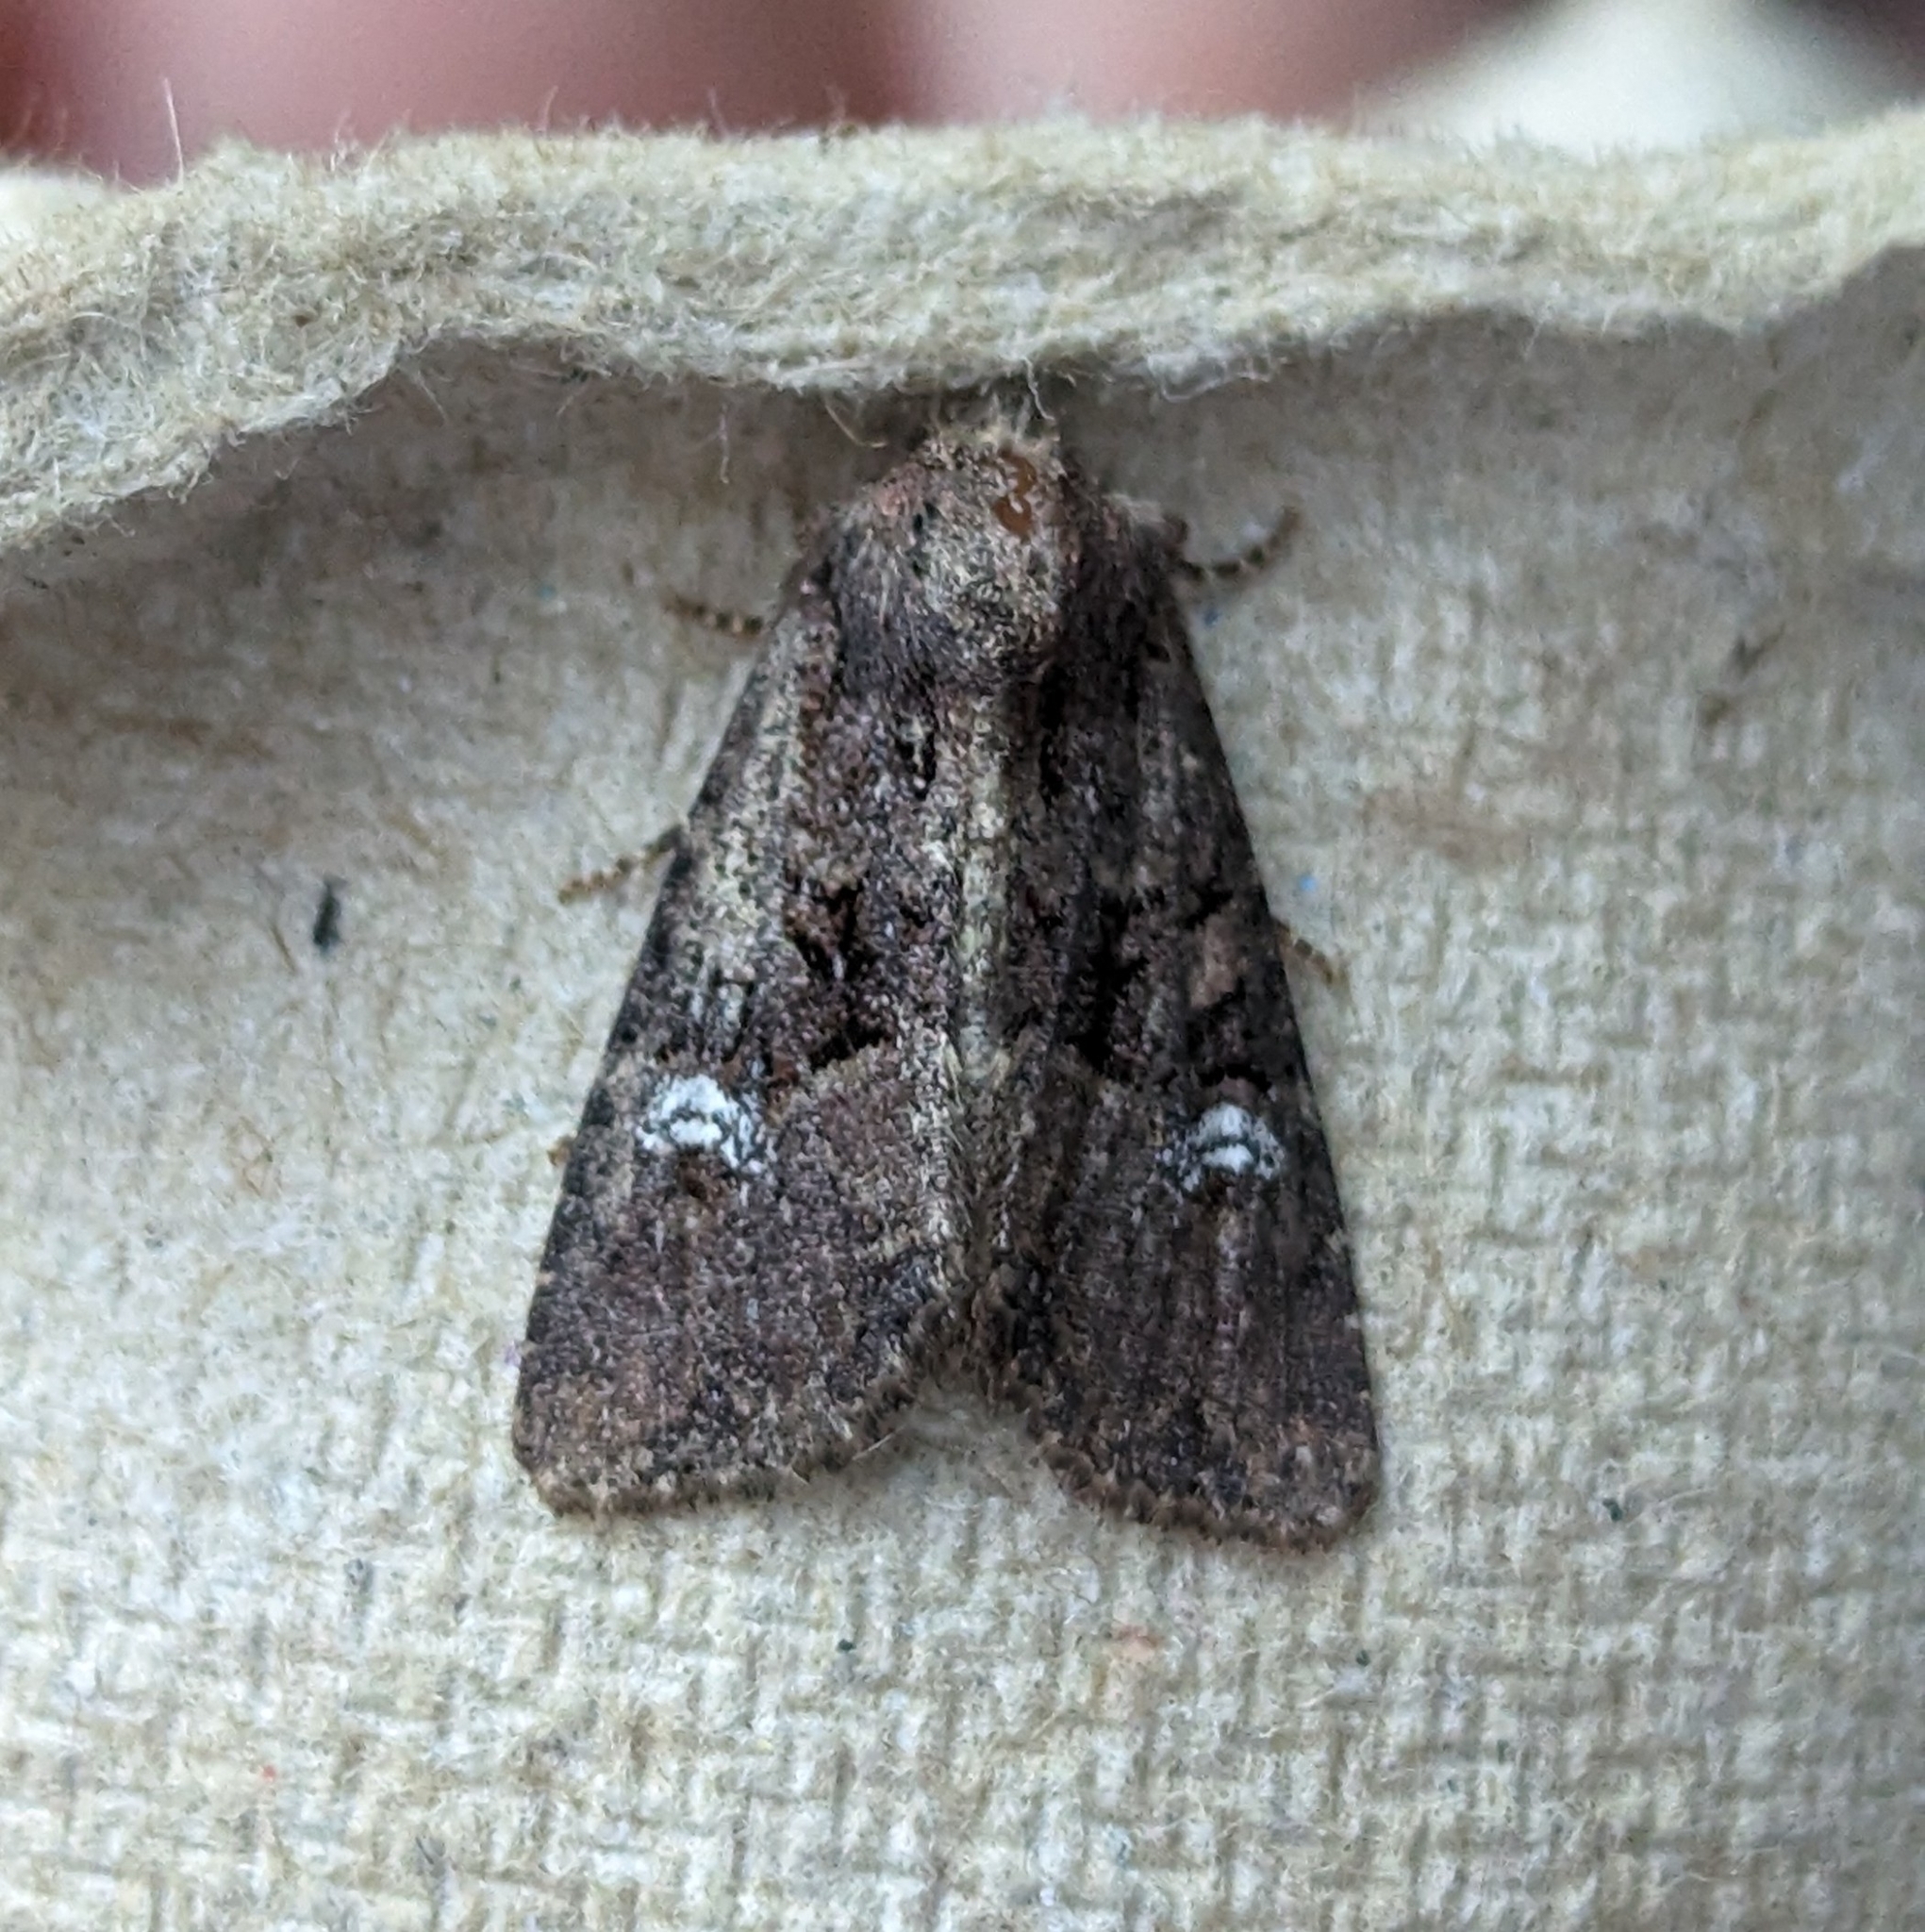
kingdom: Animalia
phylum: Arthropoda
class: Insecta
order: Lepidoptera
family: Noctuidae
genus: Mesapamea
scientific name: Mesapamea secalis
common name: Common rustic
